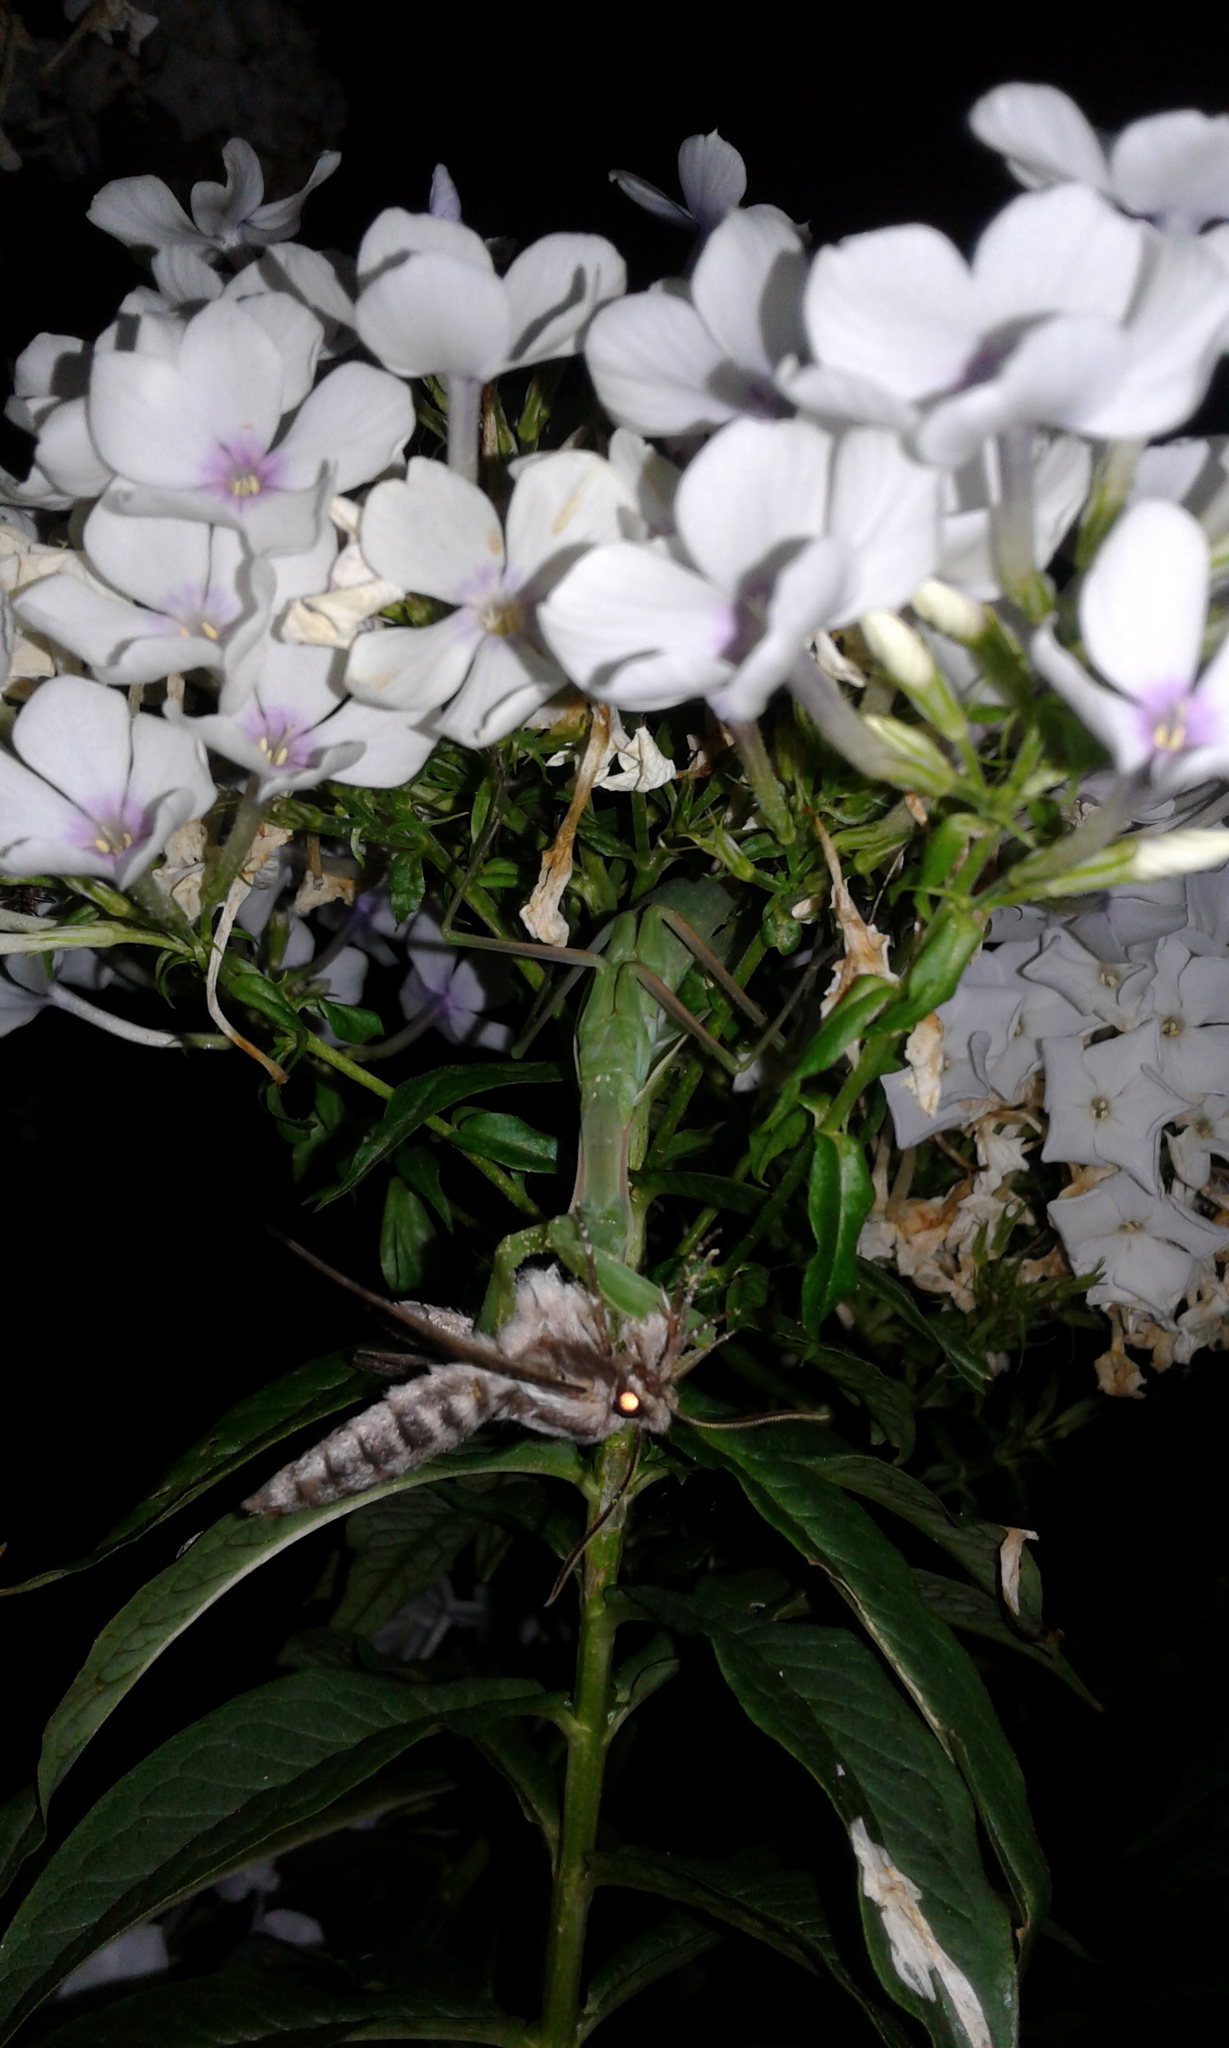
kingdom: Animalia
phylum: Arthropoda
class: Insecta
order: Mantodea
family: Mantidae
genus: Mantis
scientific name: Mantis religiosa
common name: Praying mantis
